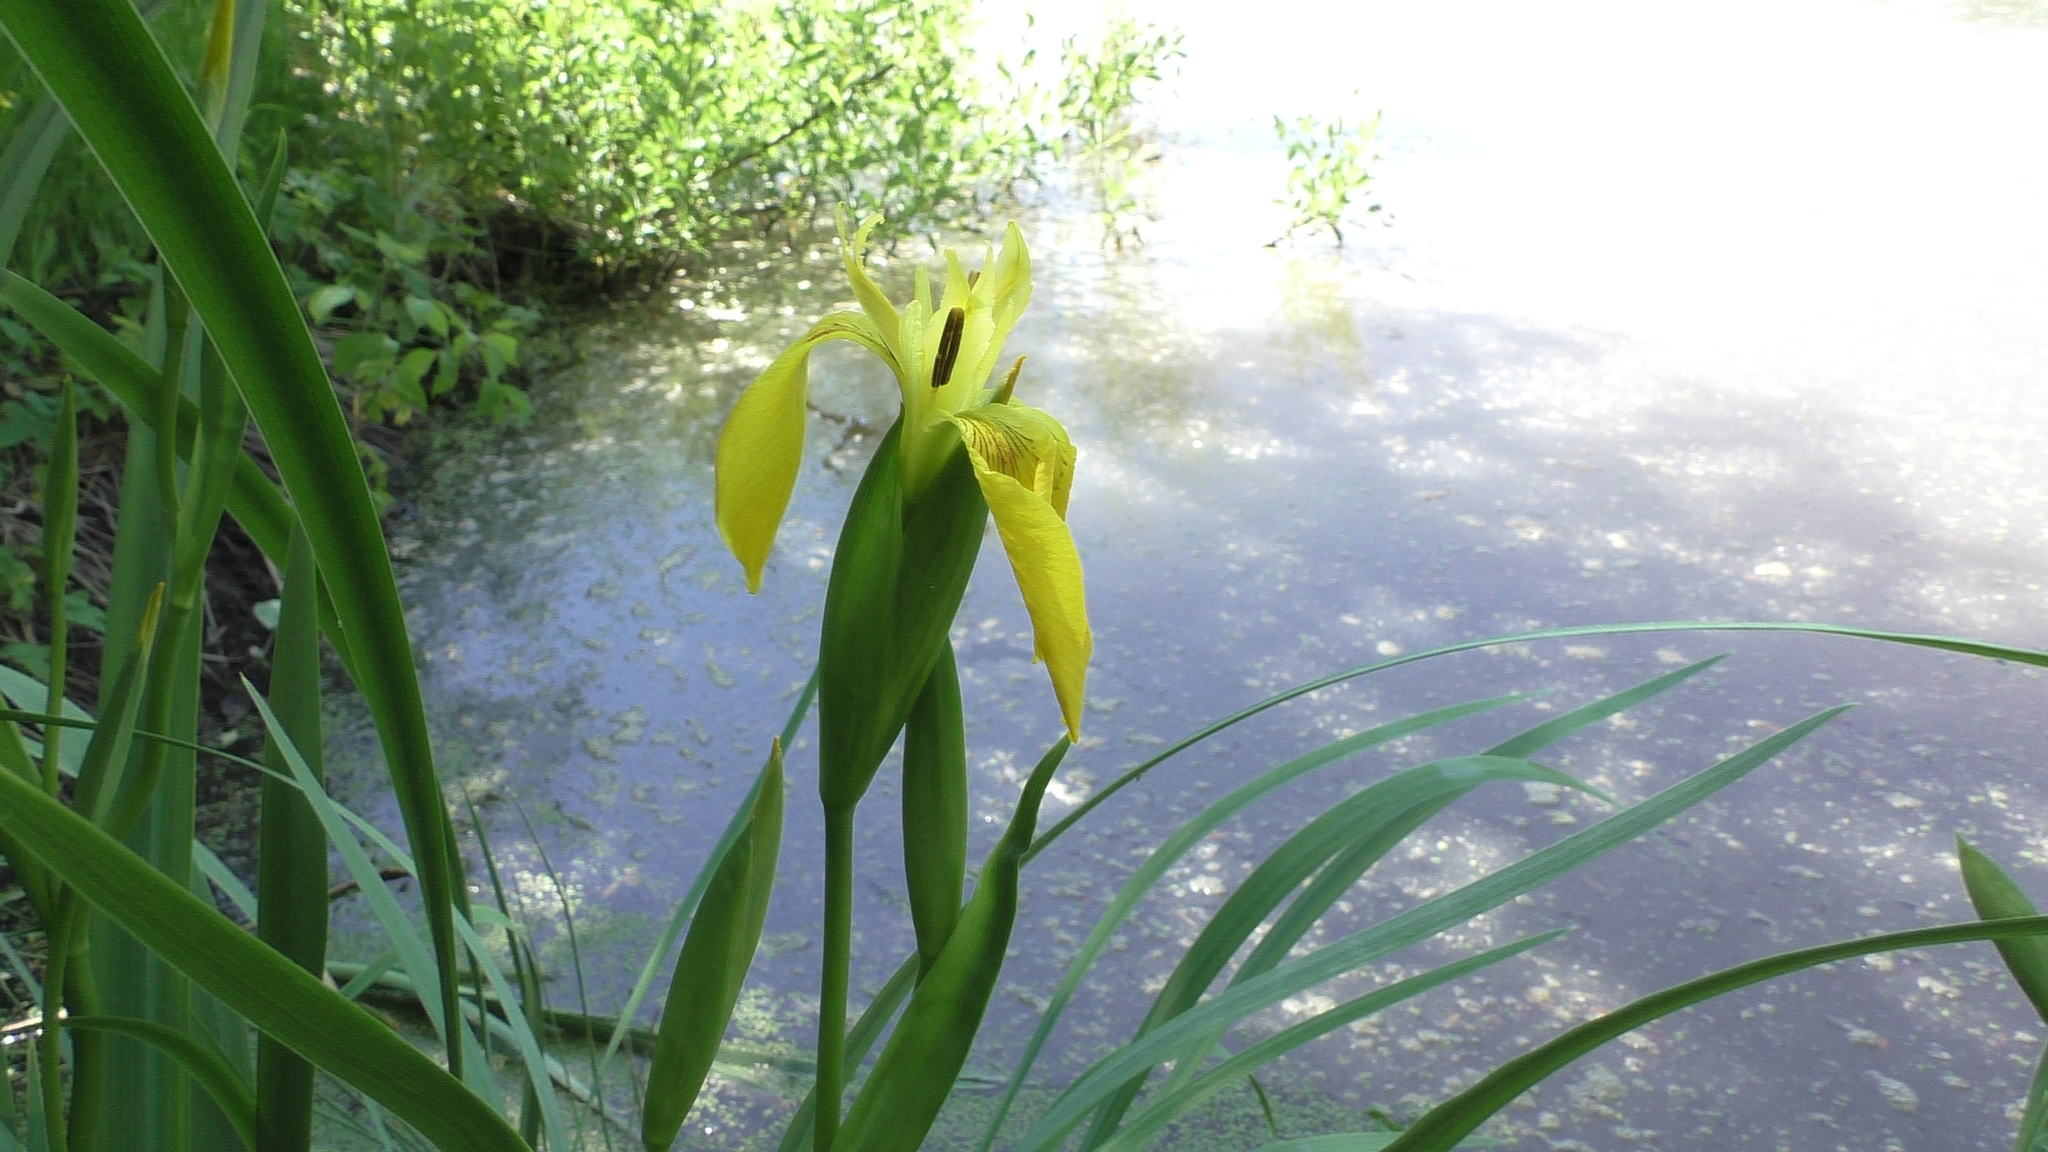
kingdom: Plantae
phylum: Tracheophyta
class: Liliopsida
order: Asparagales
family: Iridaceae
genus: Iris
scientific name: Iris pseudacorus
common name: Yellow flag
